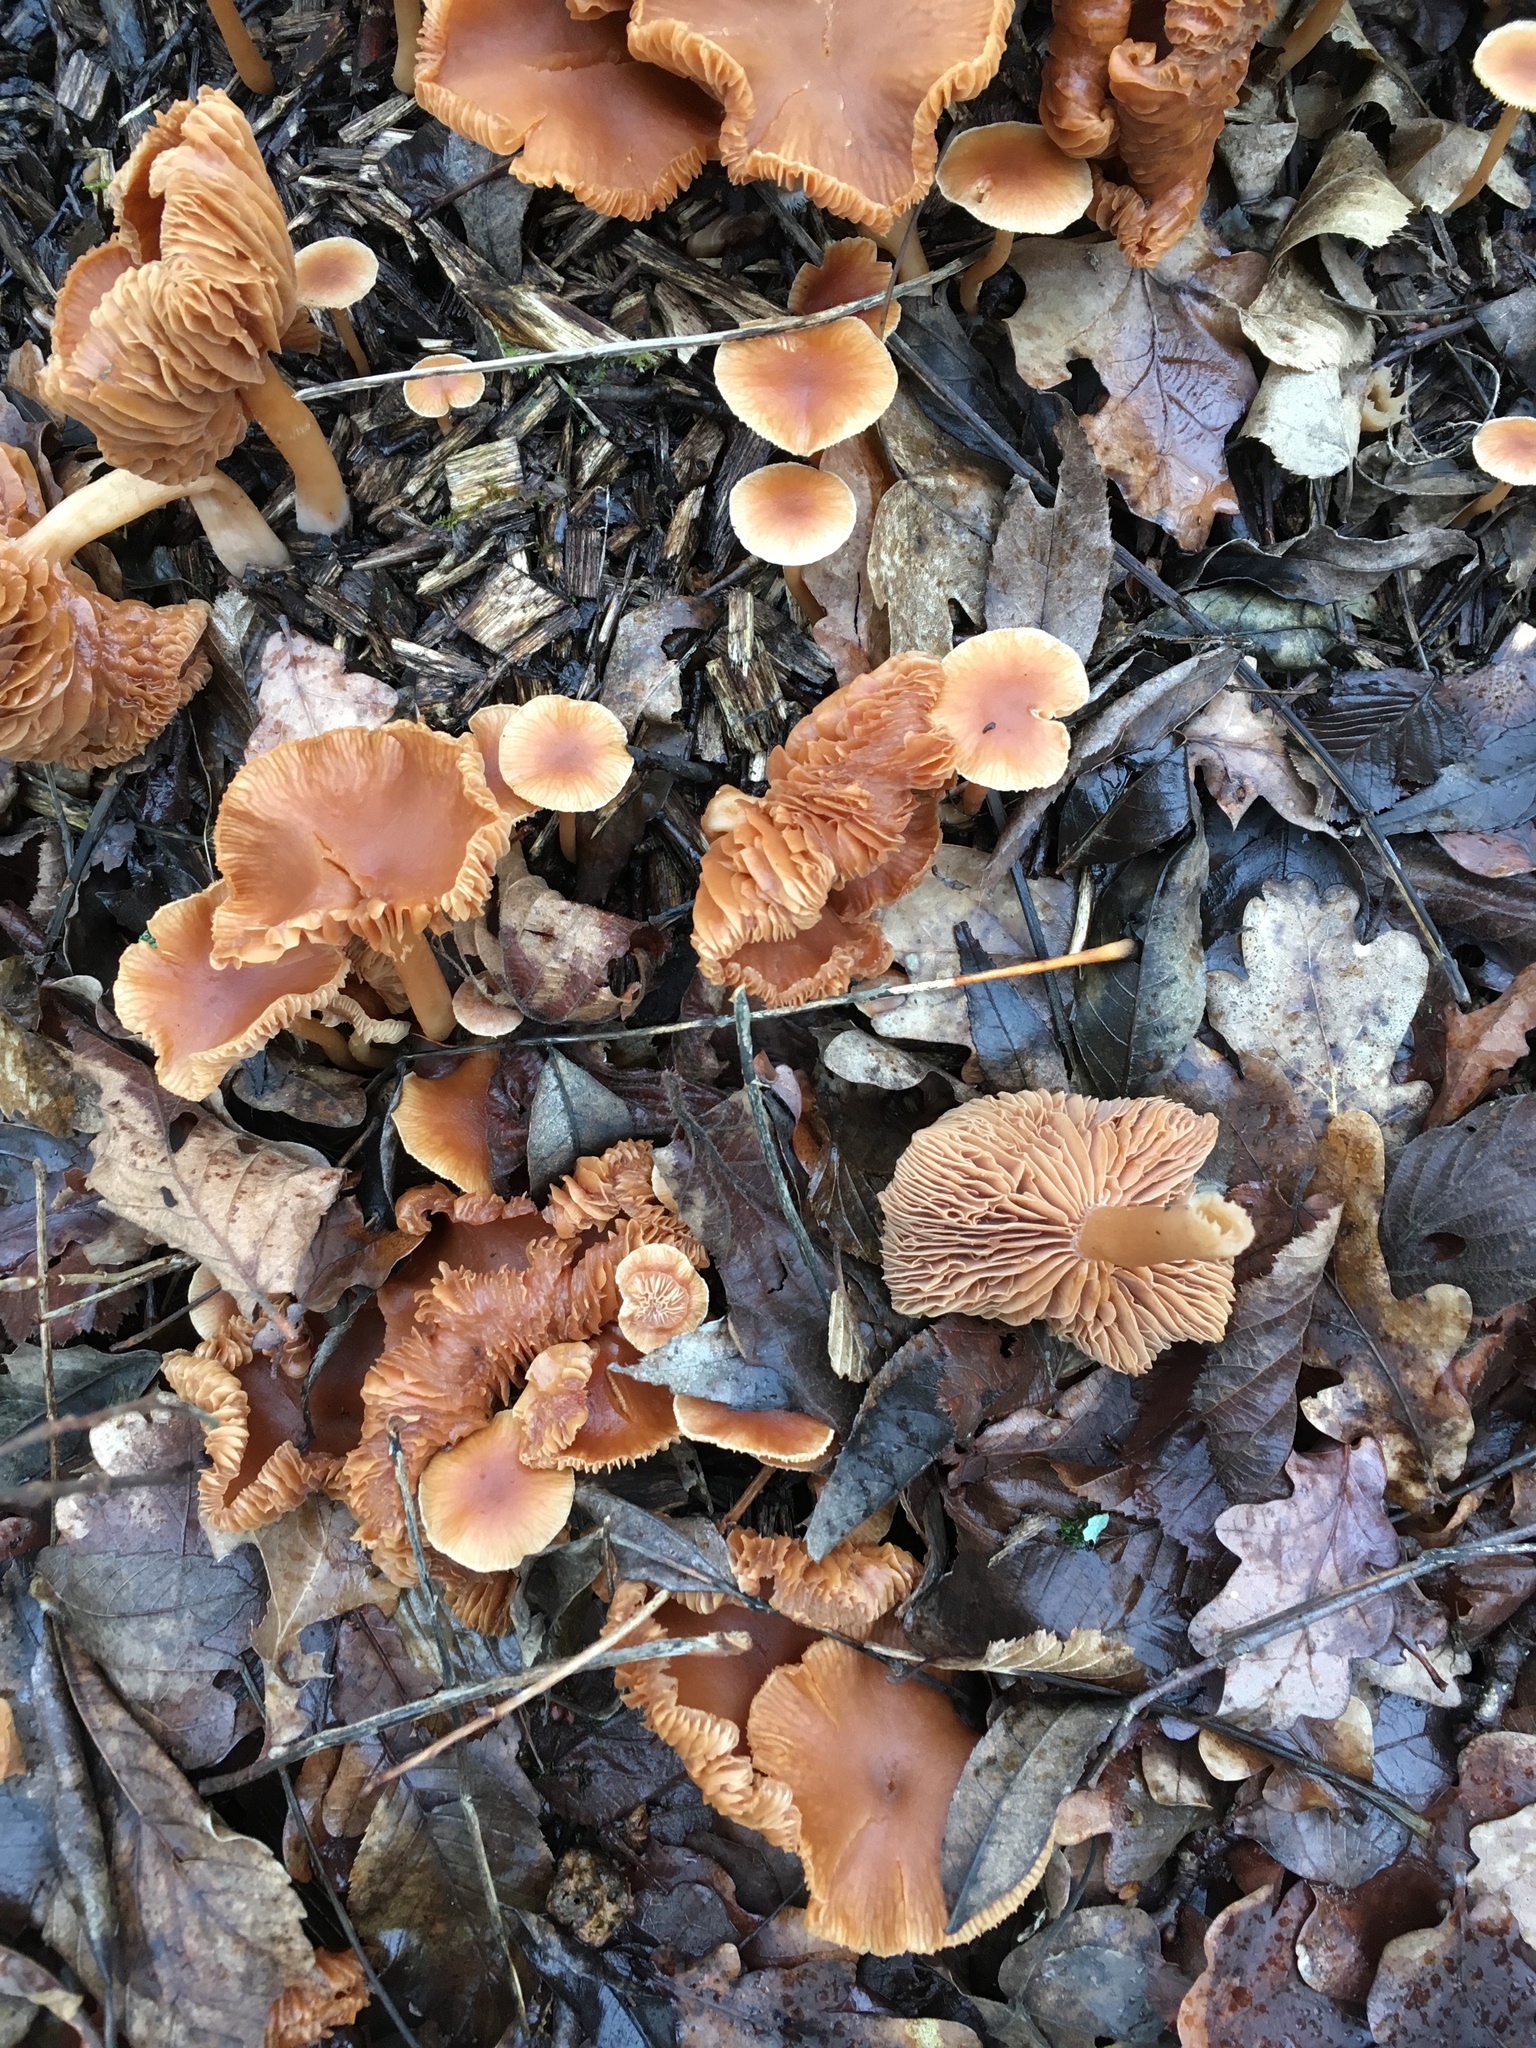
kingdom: Fungi
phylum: Basidiomycota
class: Agaricomycetes
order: Agaricales
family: Tubariaceae
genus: Tubaria
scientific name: Tubaria furfuracea
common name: Scurfy twiglet
